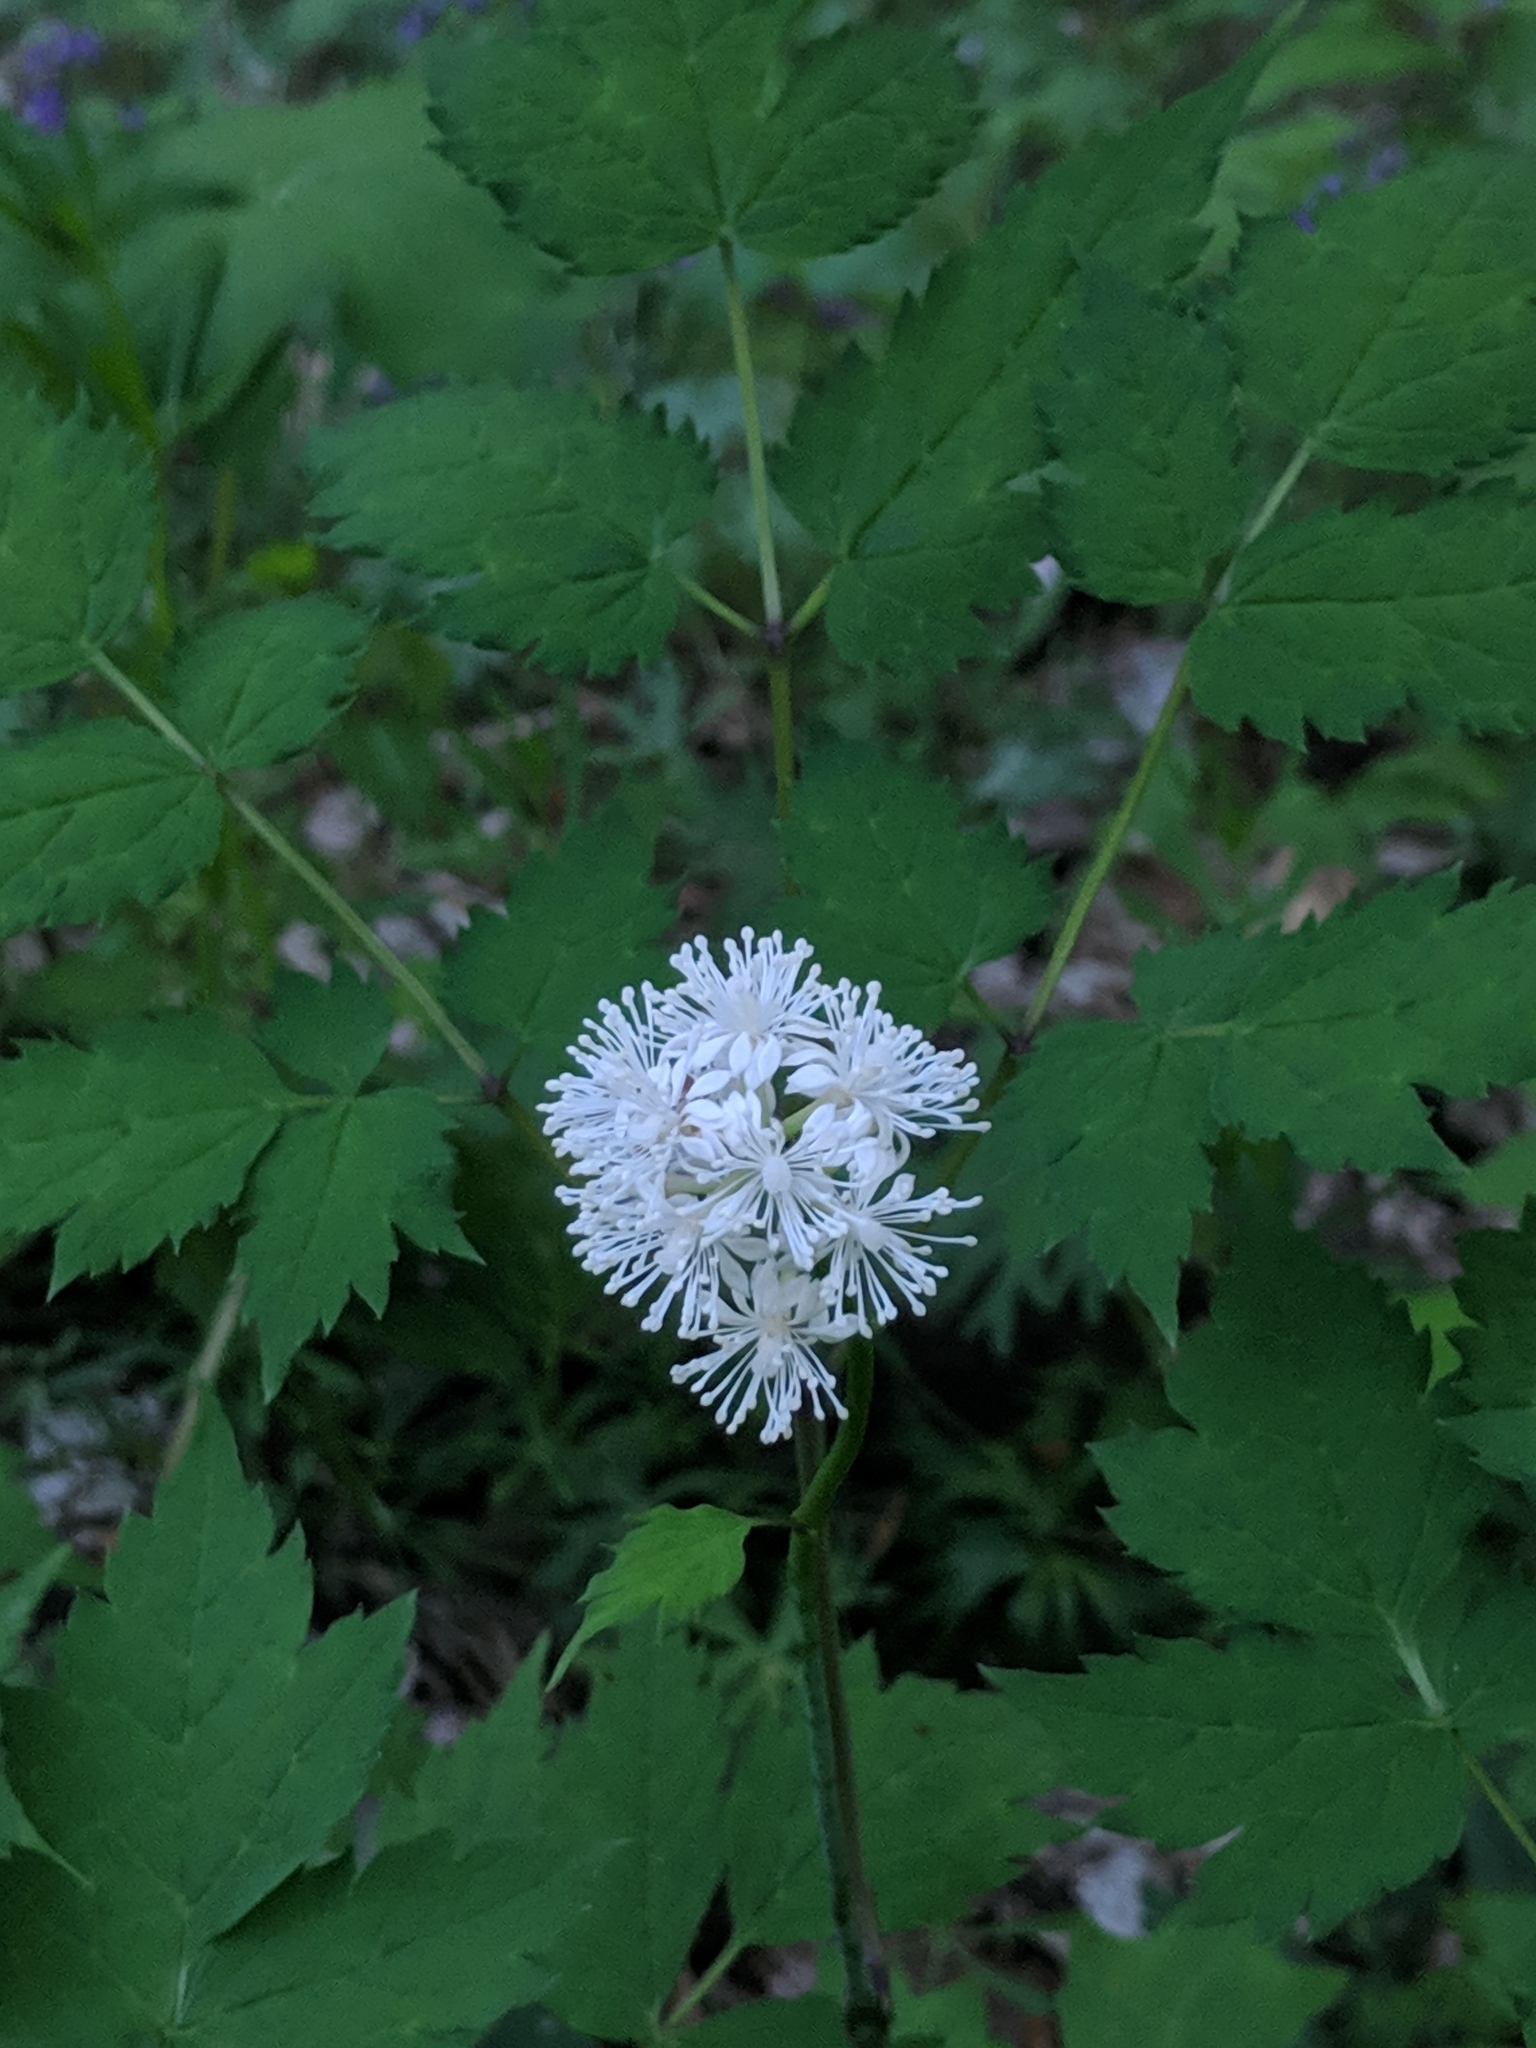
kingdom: Plantae
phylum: Tracheophyta
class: Magnoliopsida
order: Ranunculales
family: Ranunculaceae
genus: Actaea
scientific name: Actaea pachypoda
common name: Doll's-eyes
